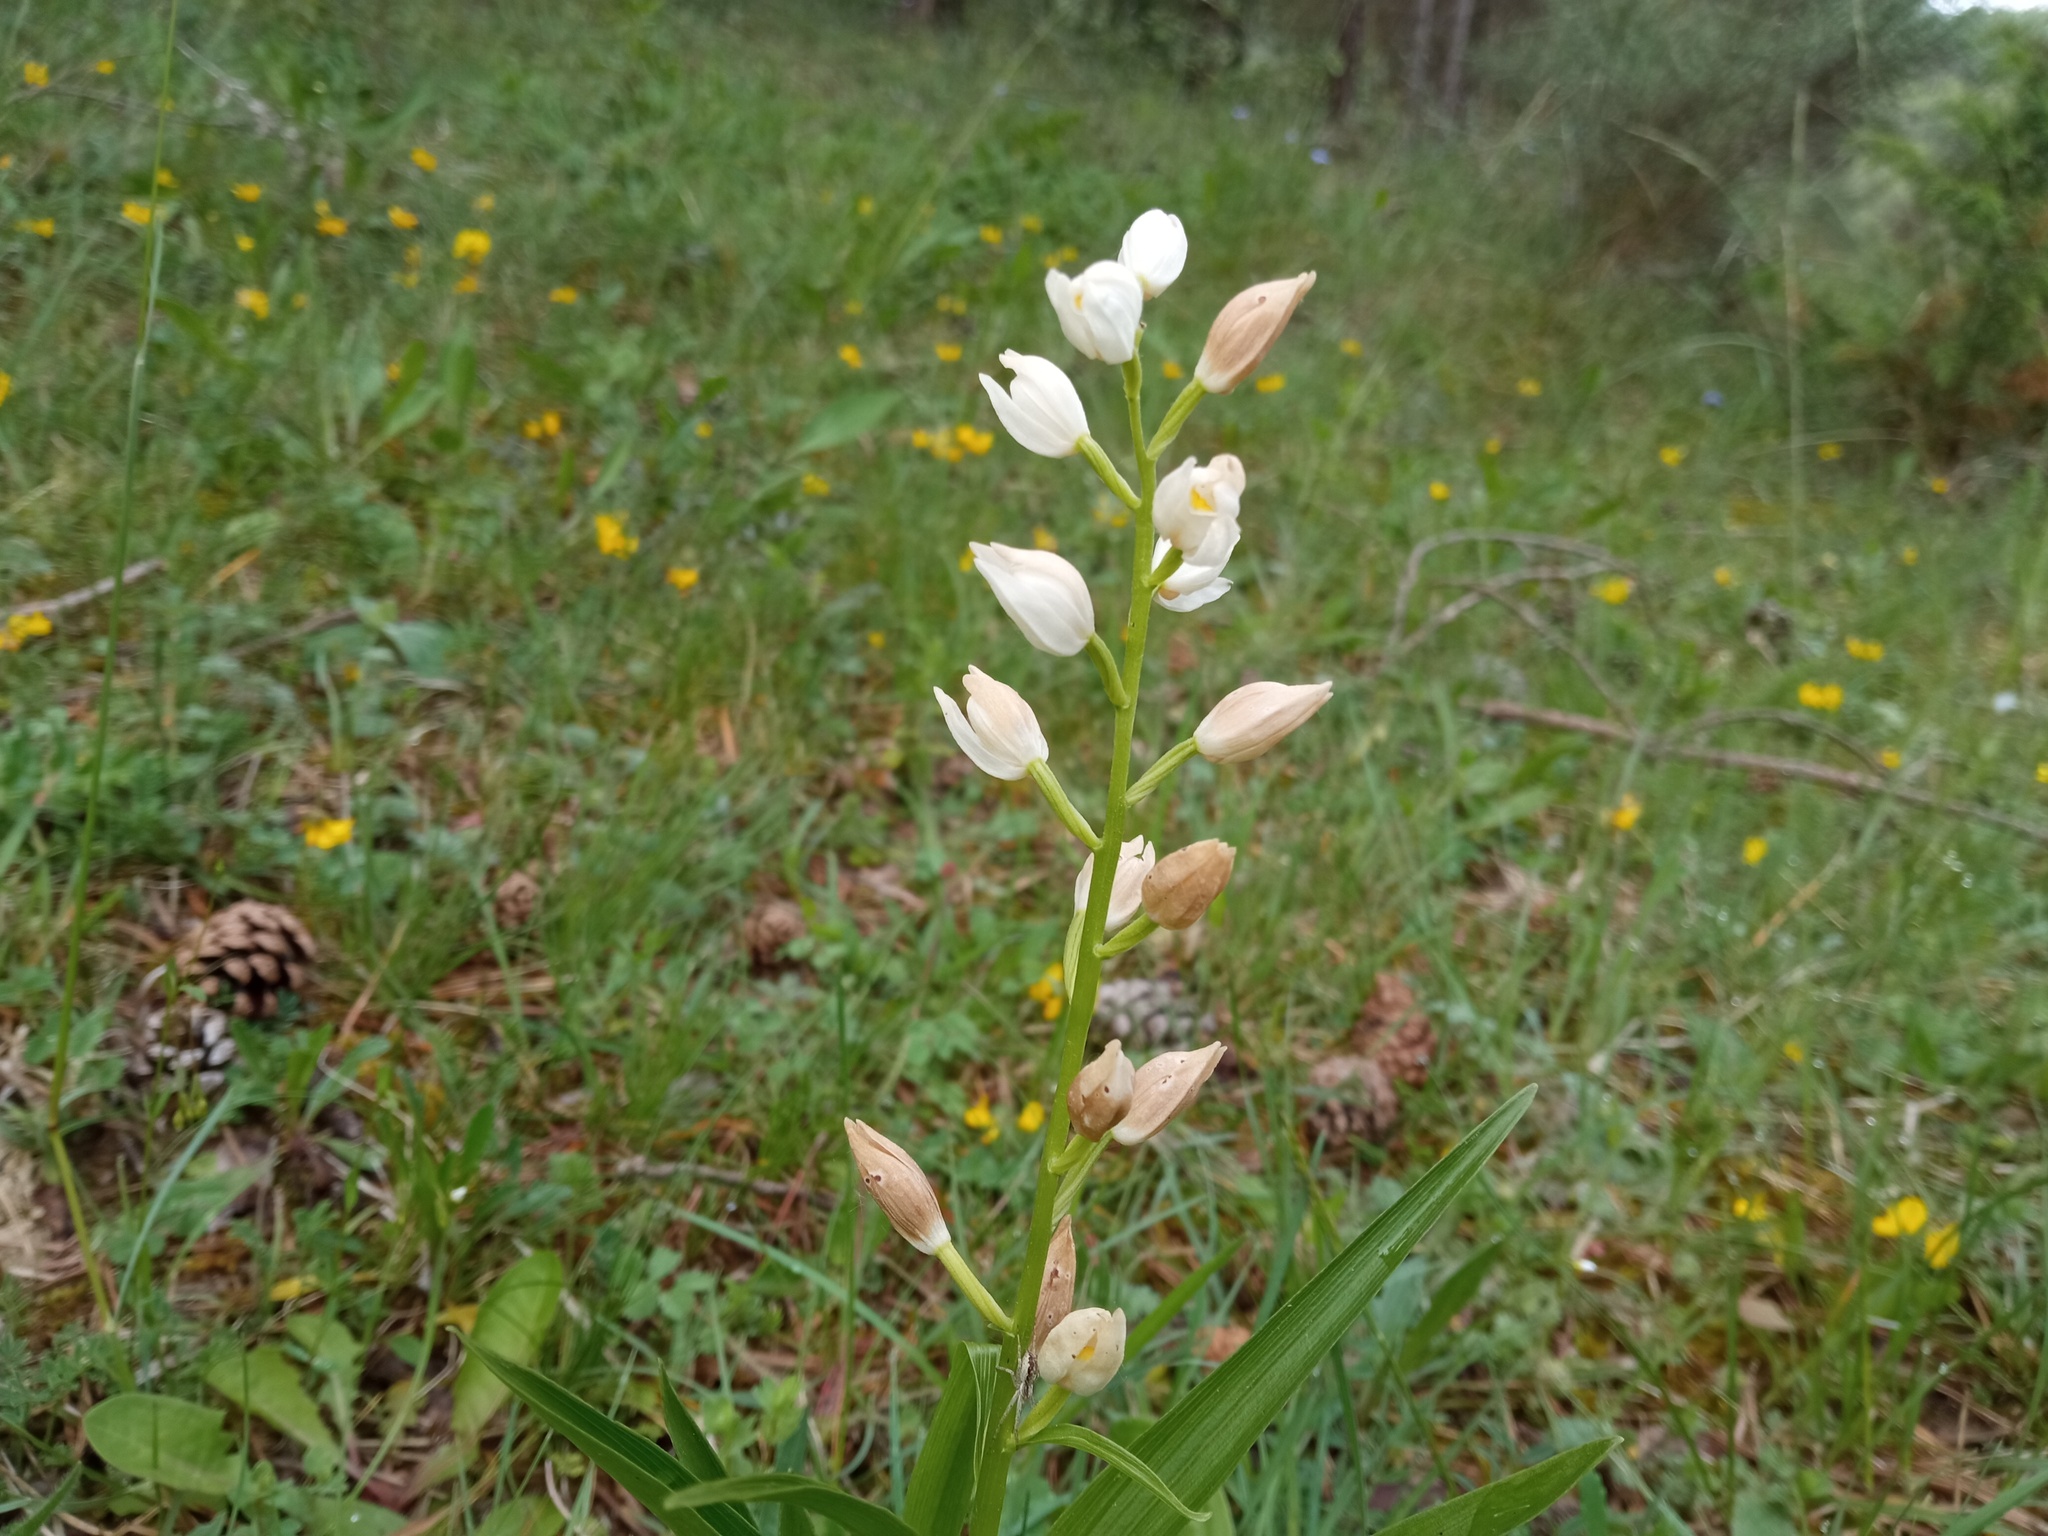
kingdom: Plantae
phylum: Tracheophyta
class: Liliopsida
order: Asparagales
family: Orchidaceae
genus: Cephalanthera
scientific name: Cephalanthera longifolia
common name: Narrow-leaved helleborine
